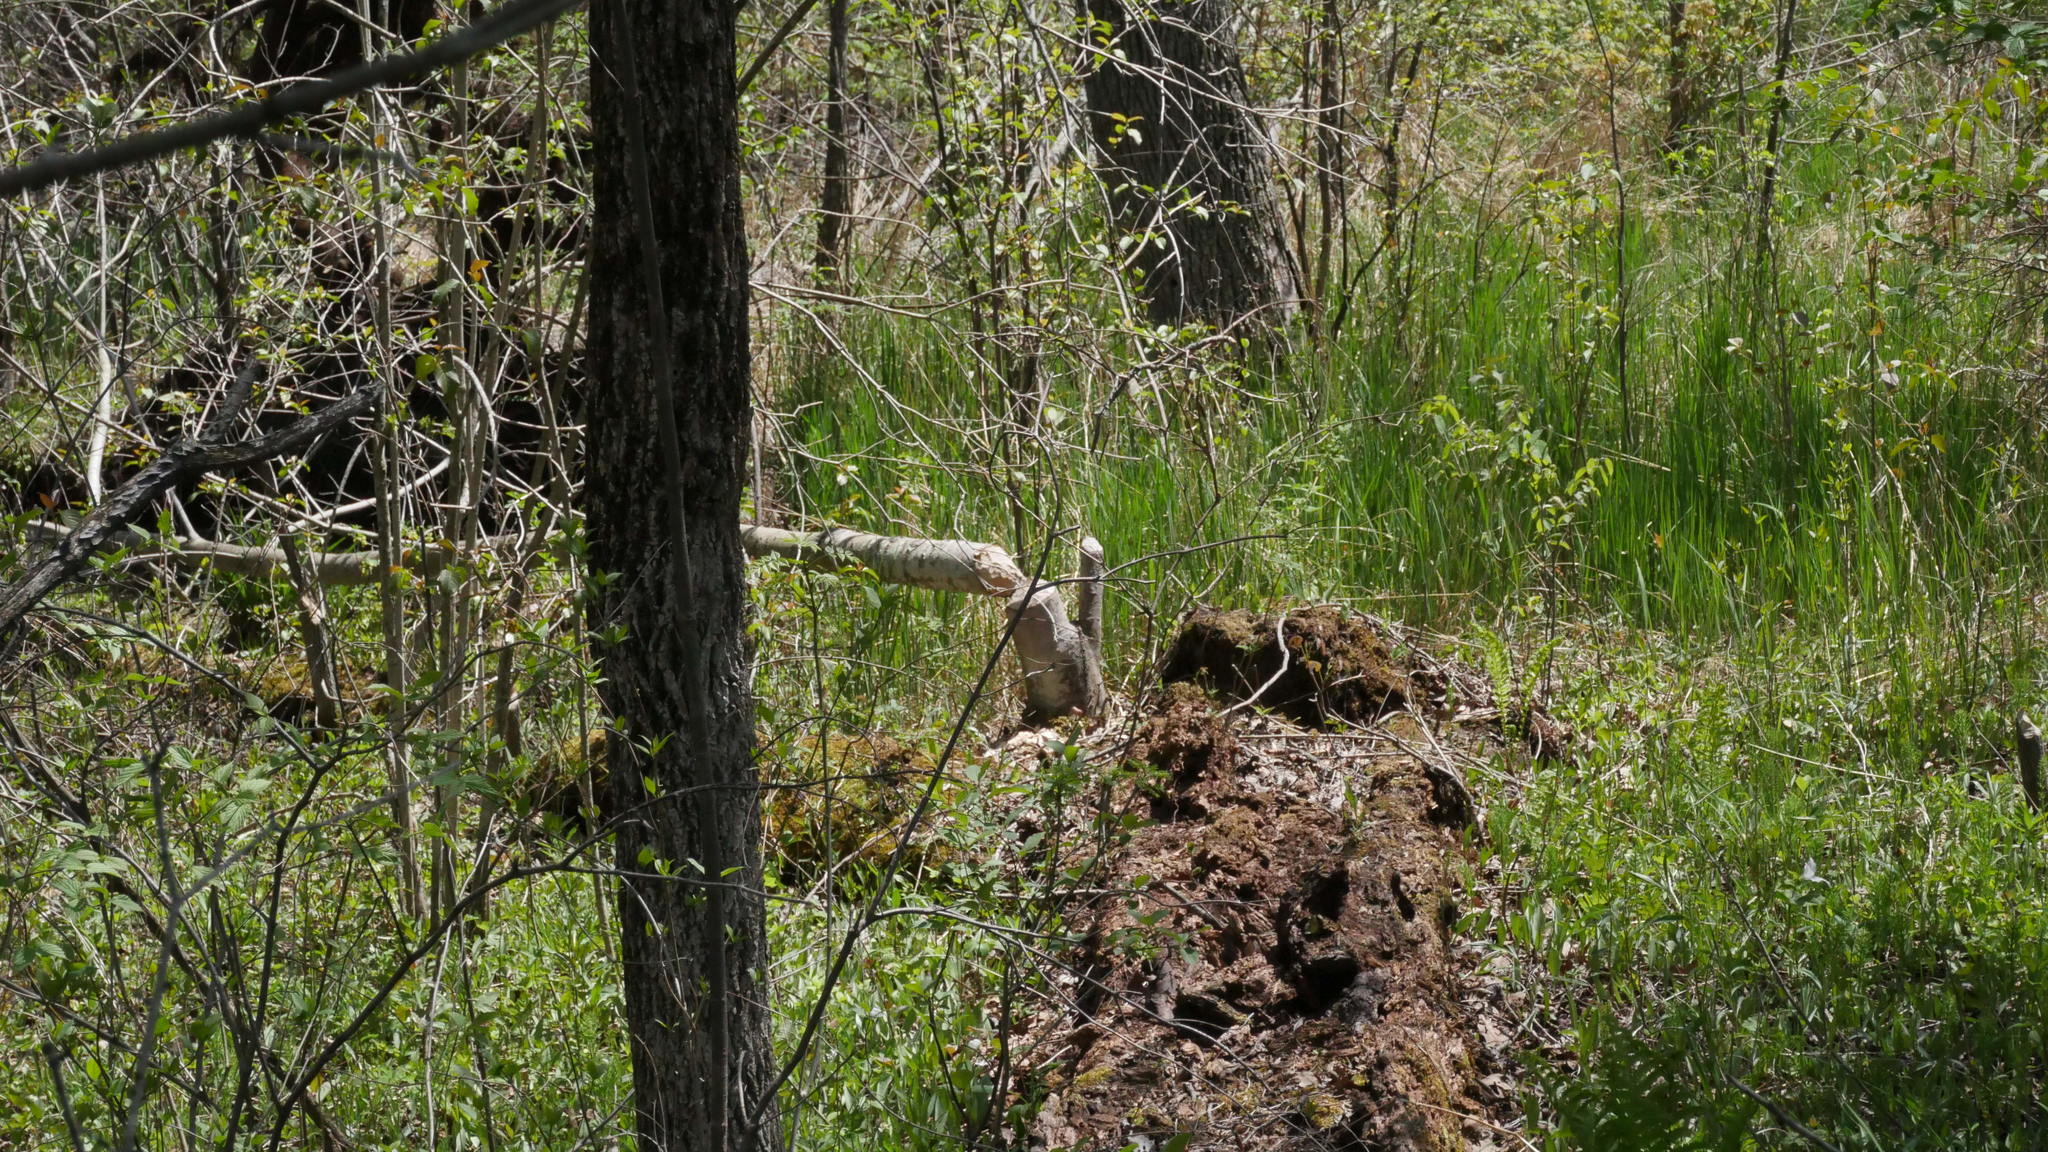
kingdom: Animalia
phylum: Chordata
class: Mammalia
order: Rodentia
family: Castoridae
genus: Castor
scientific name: Castor canadensis
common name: American beaver
